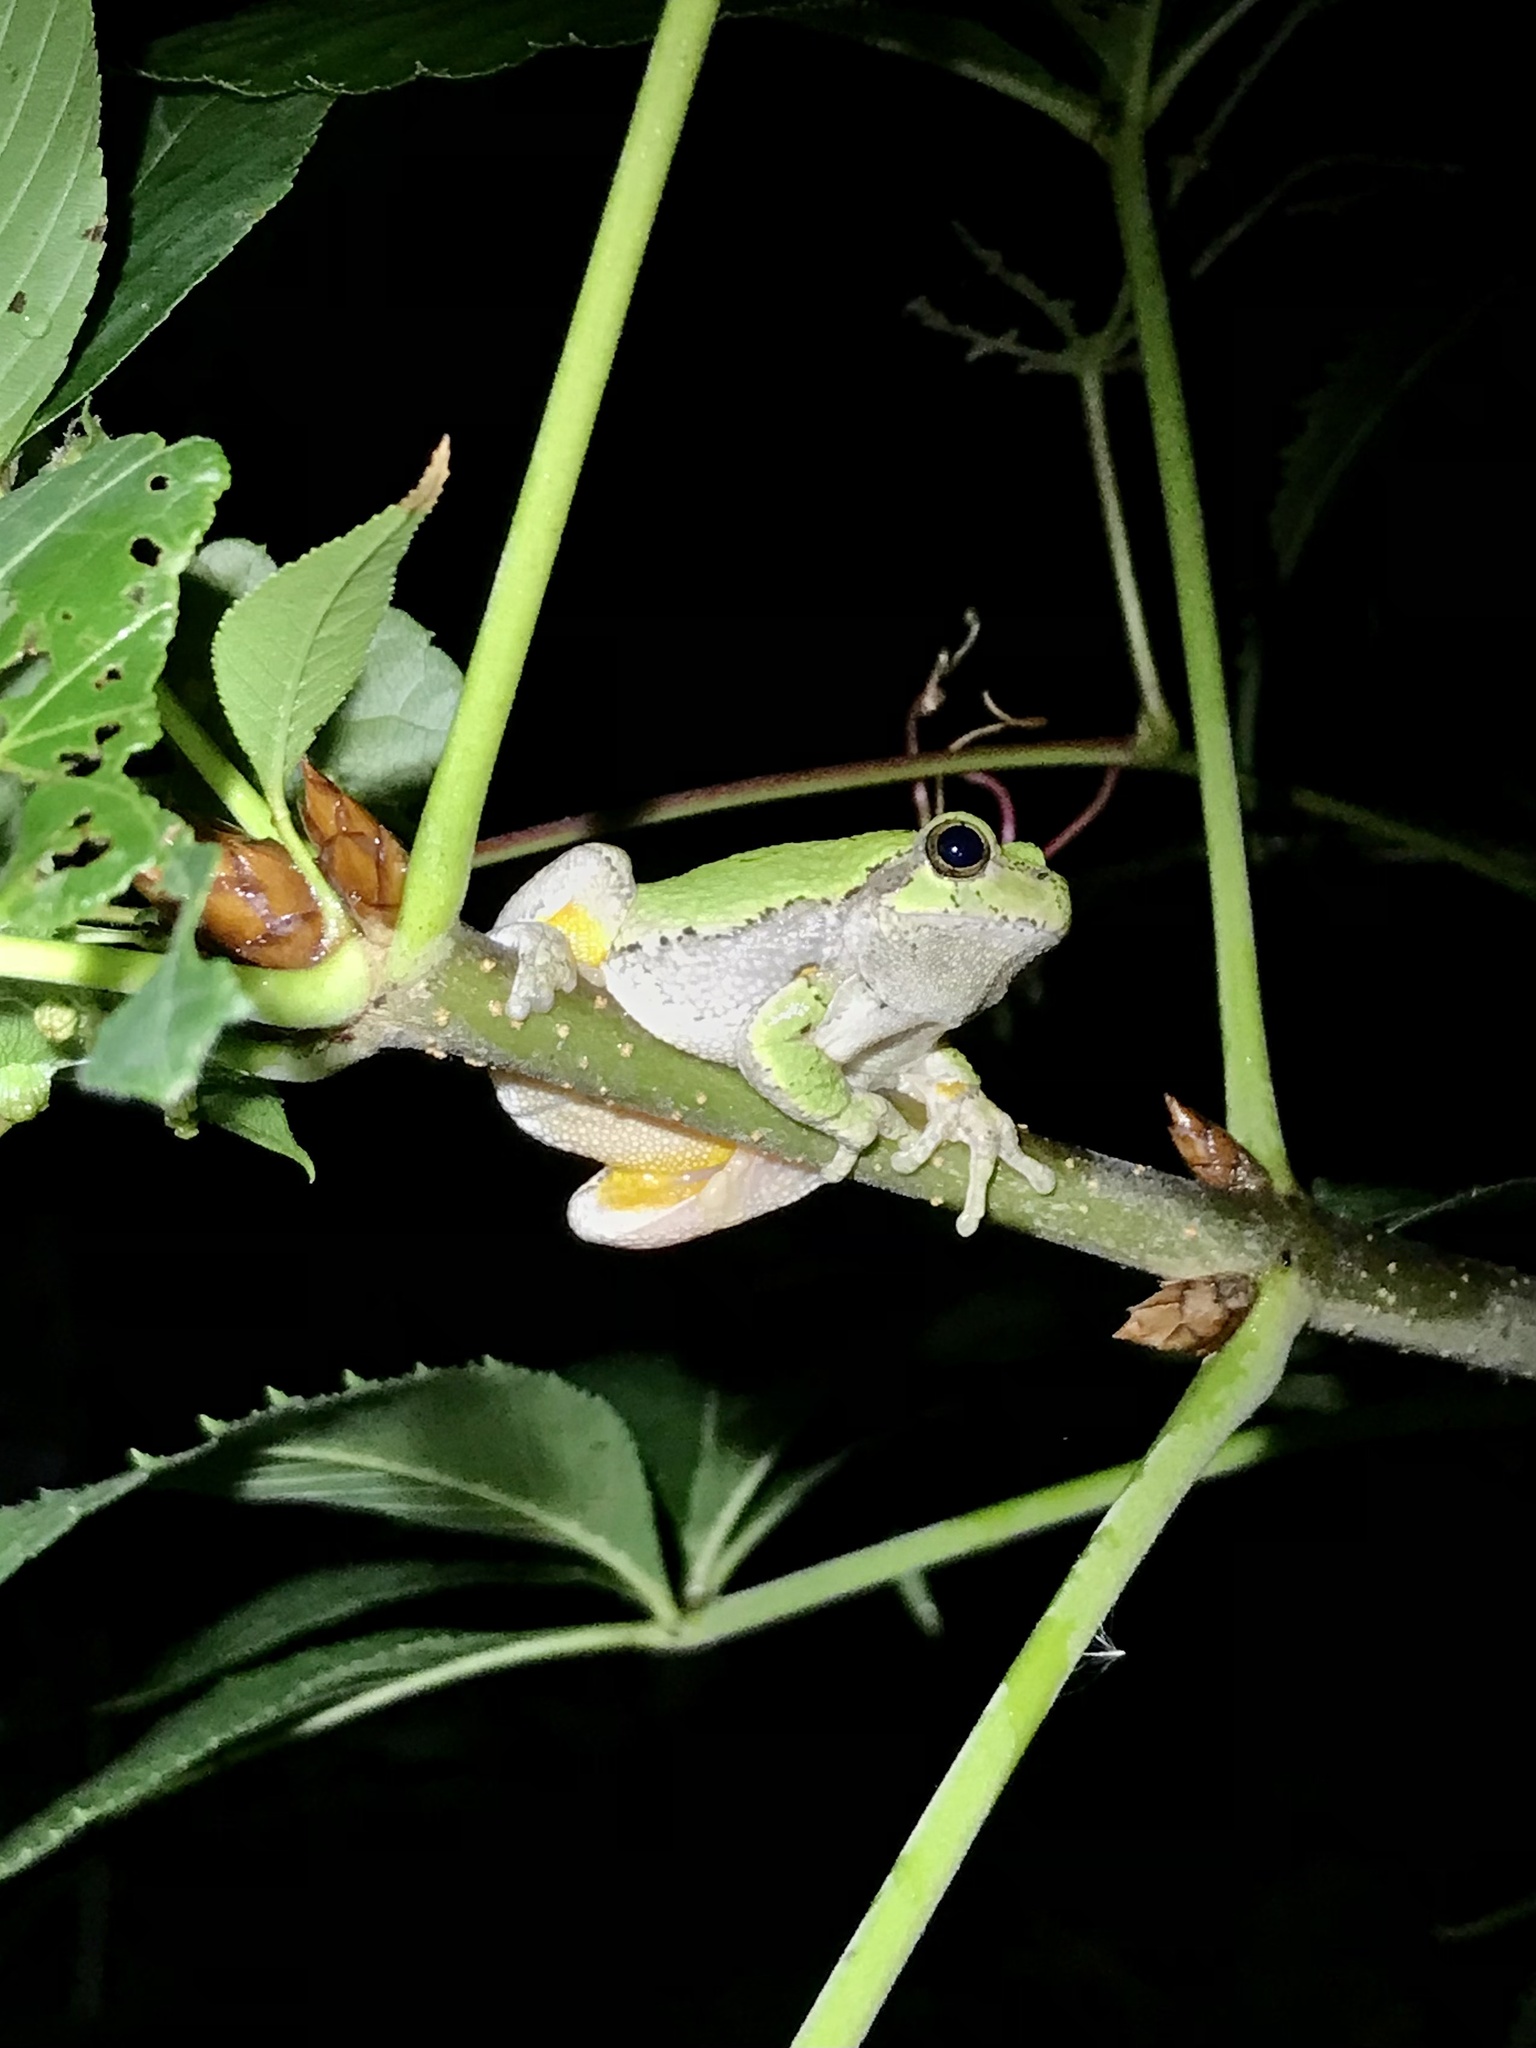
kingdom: Animalia
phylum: Chordata
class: Amphibia
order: Anura
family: Hylidae
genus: Hyla
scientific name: Hyla
